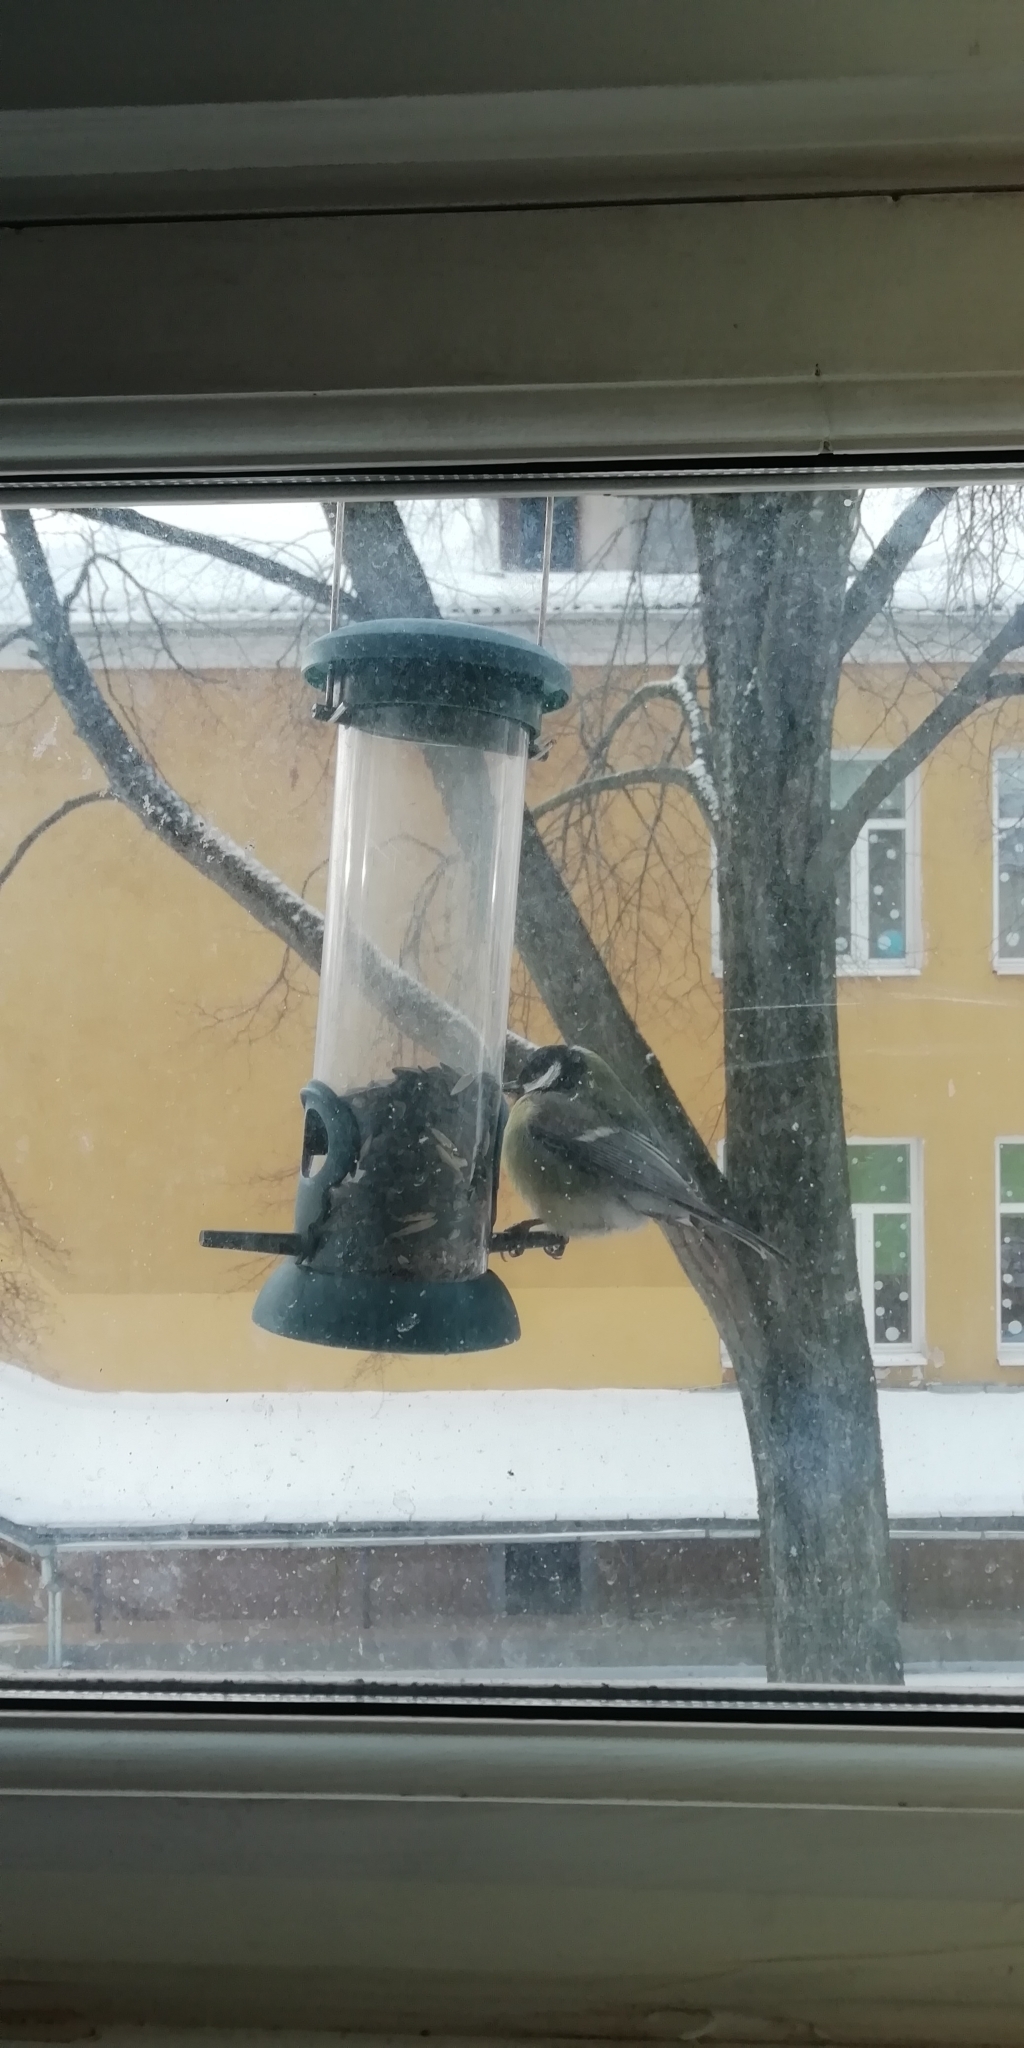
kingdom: Animalia
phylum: Chordata
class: Aves
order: Passeriformes
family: Paridae
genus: Parus
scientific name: Parus major
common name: Great tit
